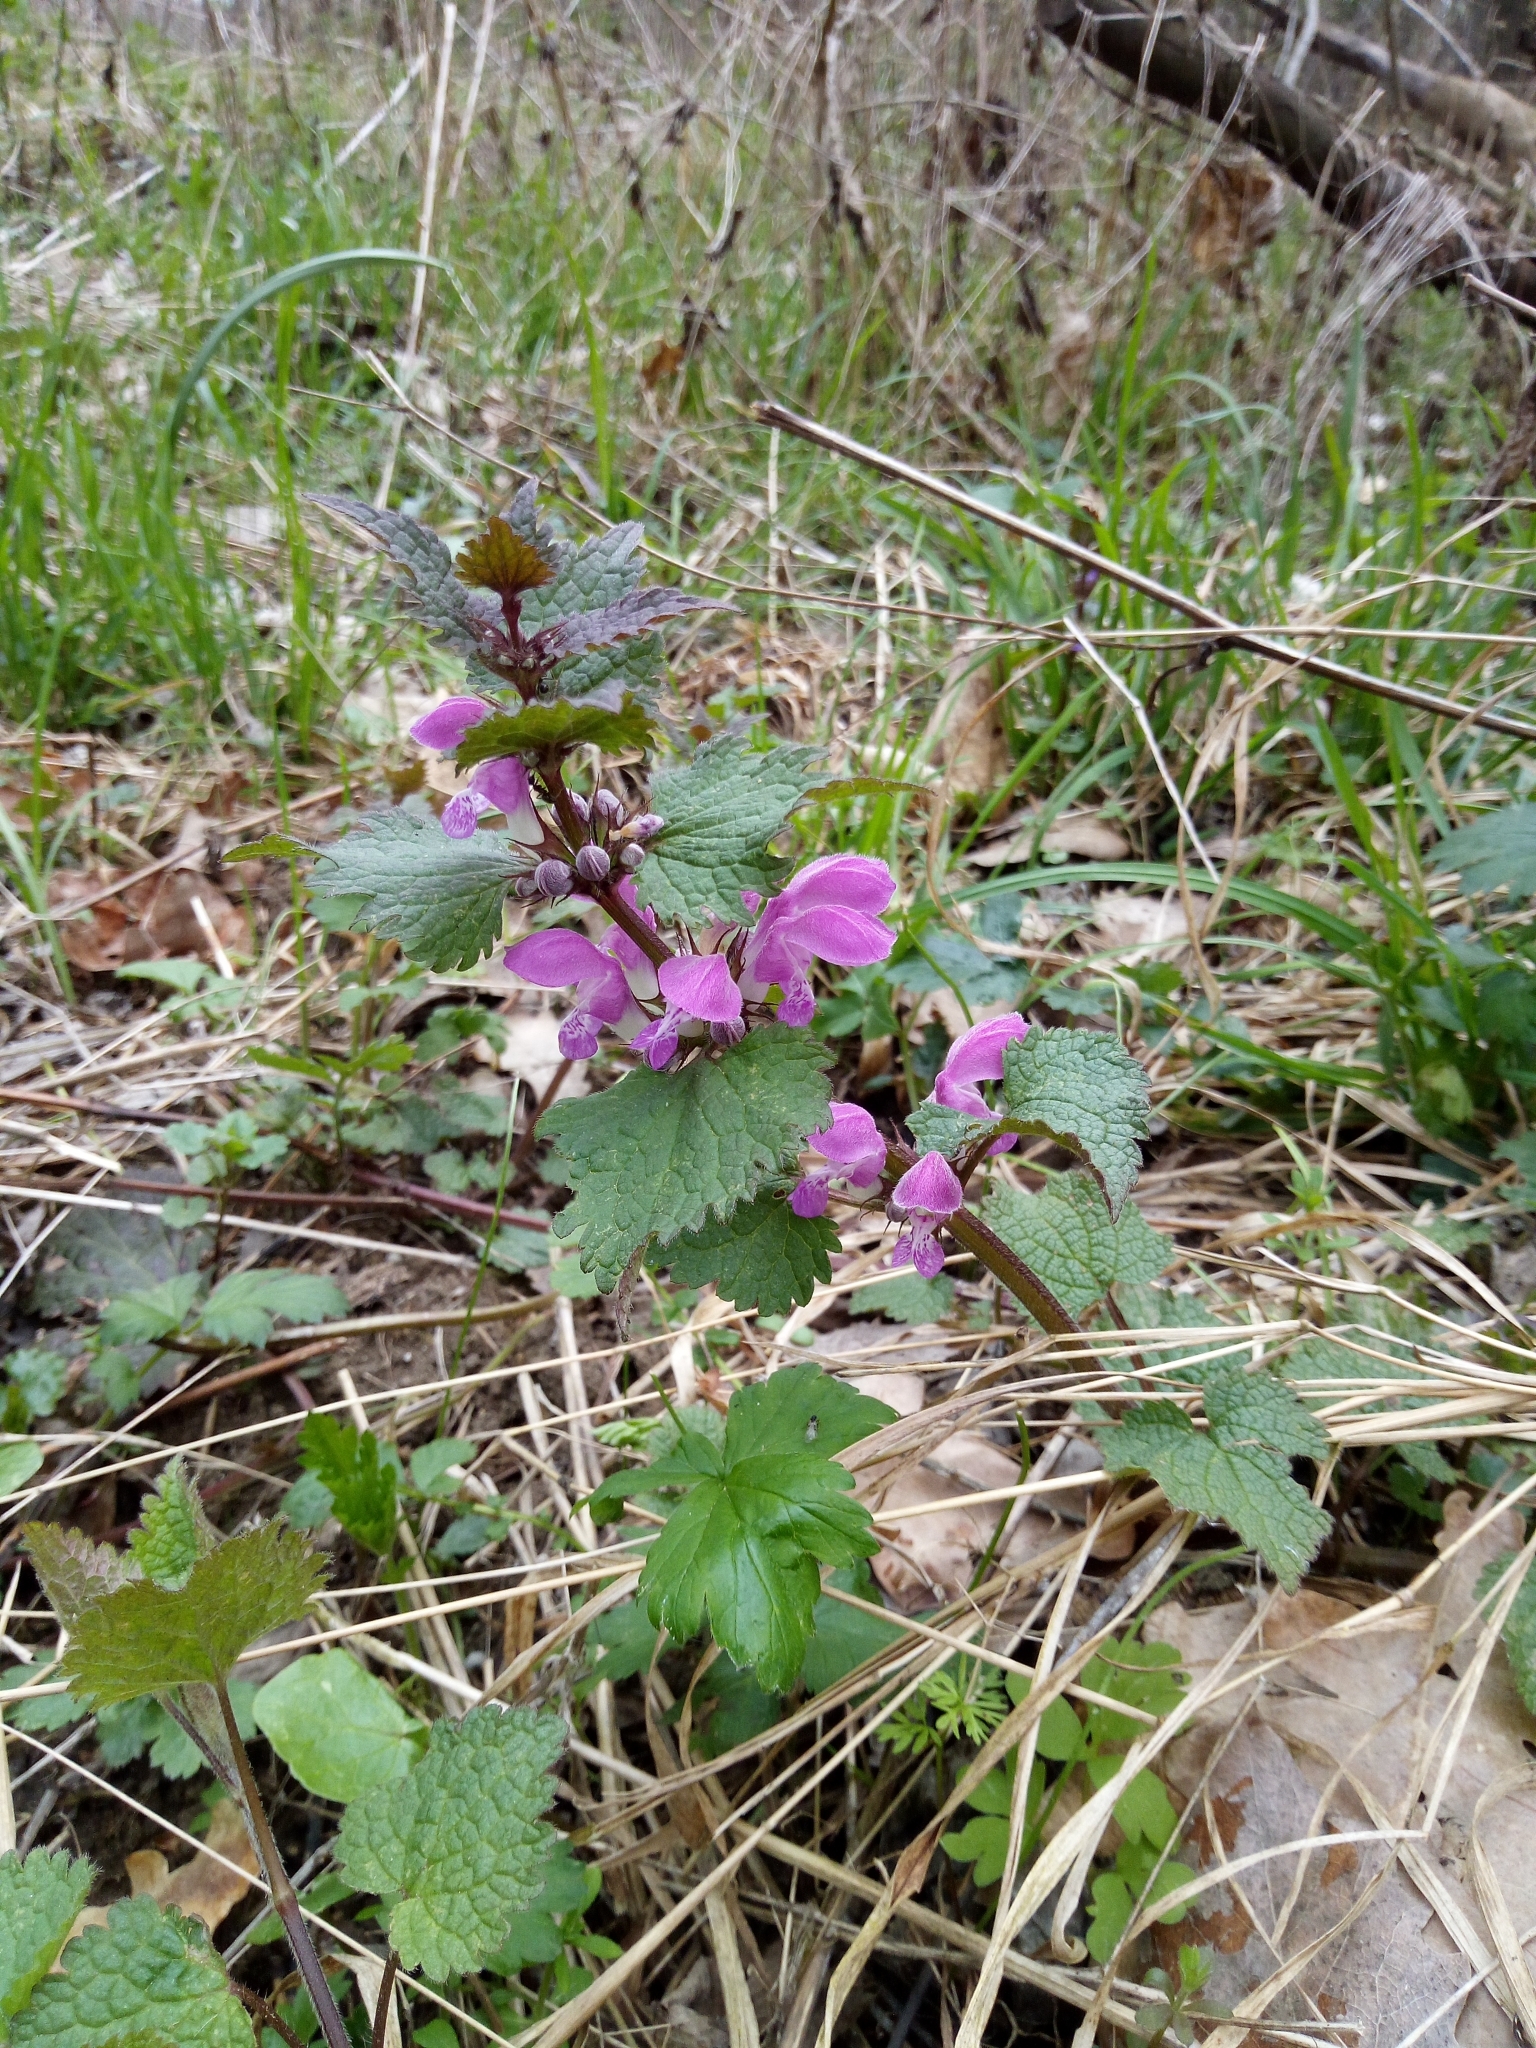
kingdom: Plantae
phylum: Tracheophyta
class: Magnoliopsida
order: Lamiales
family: Lamiaceae
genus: Lamium
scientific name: Lamium maculatum
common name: Spotted dead-nettle
